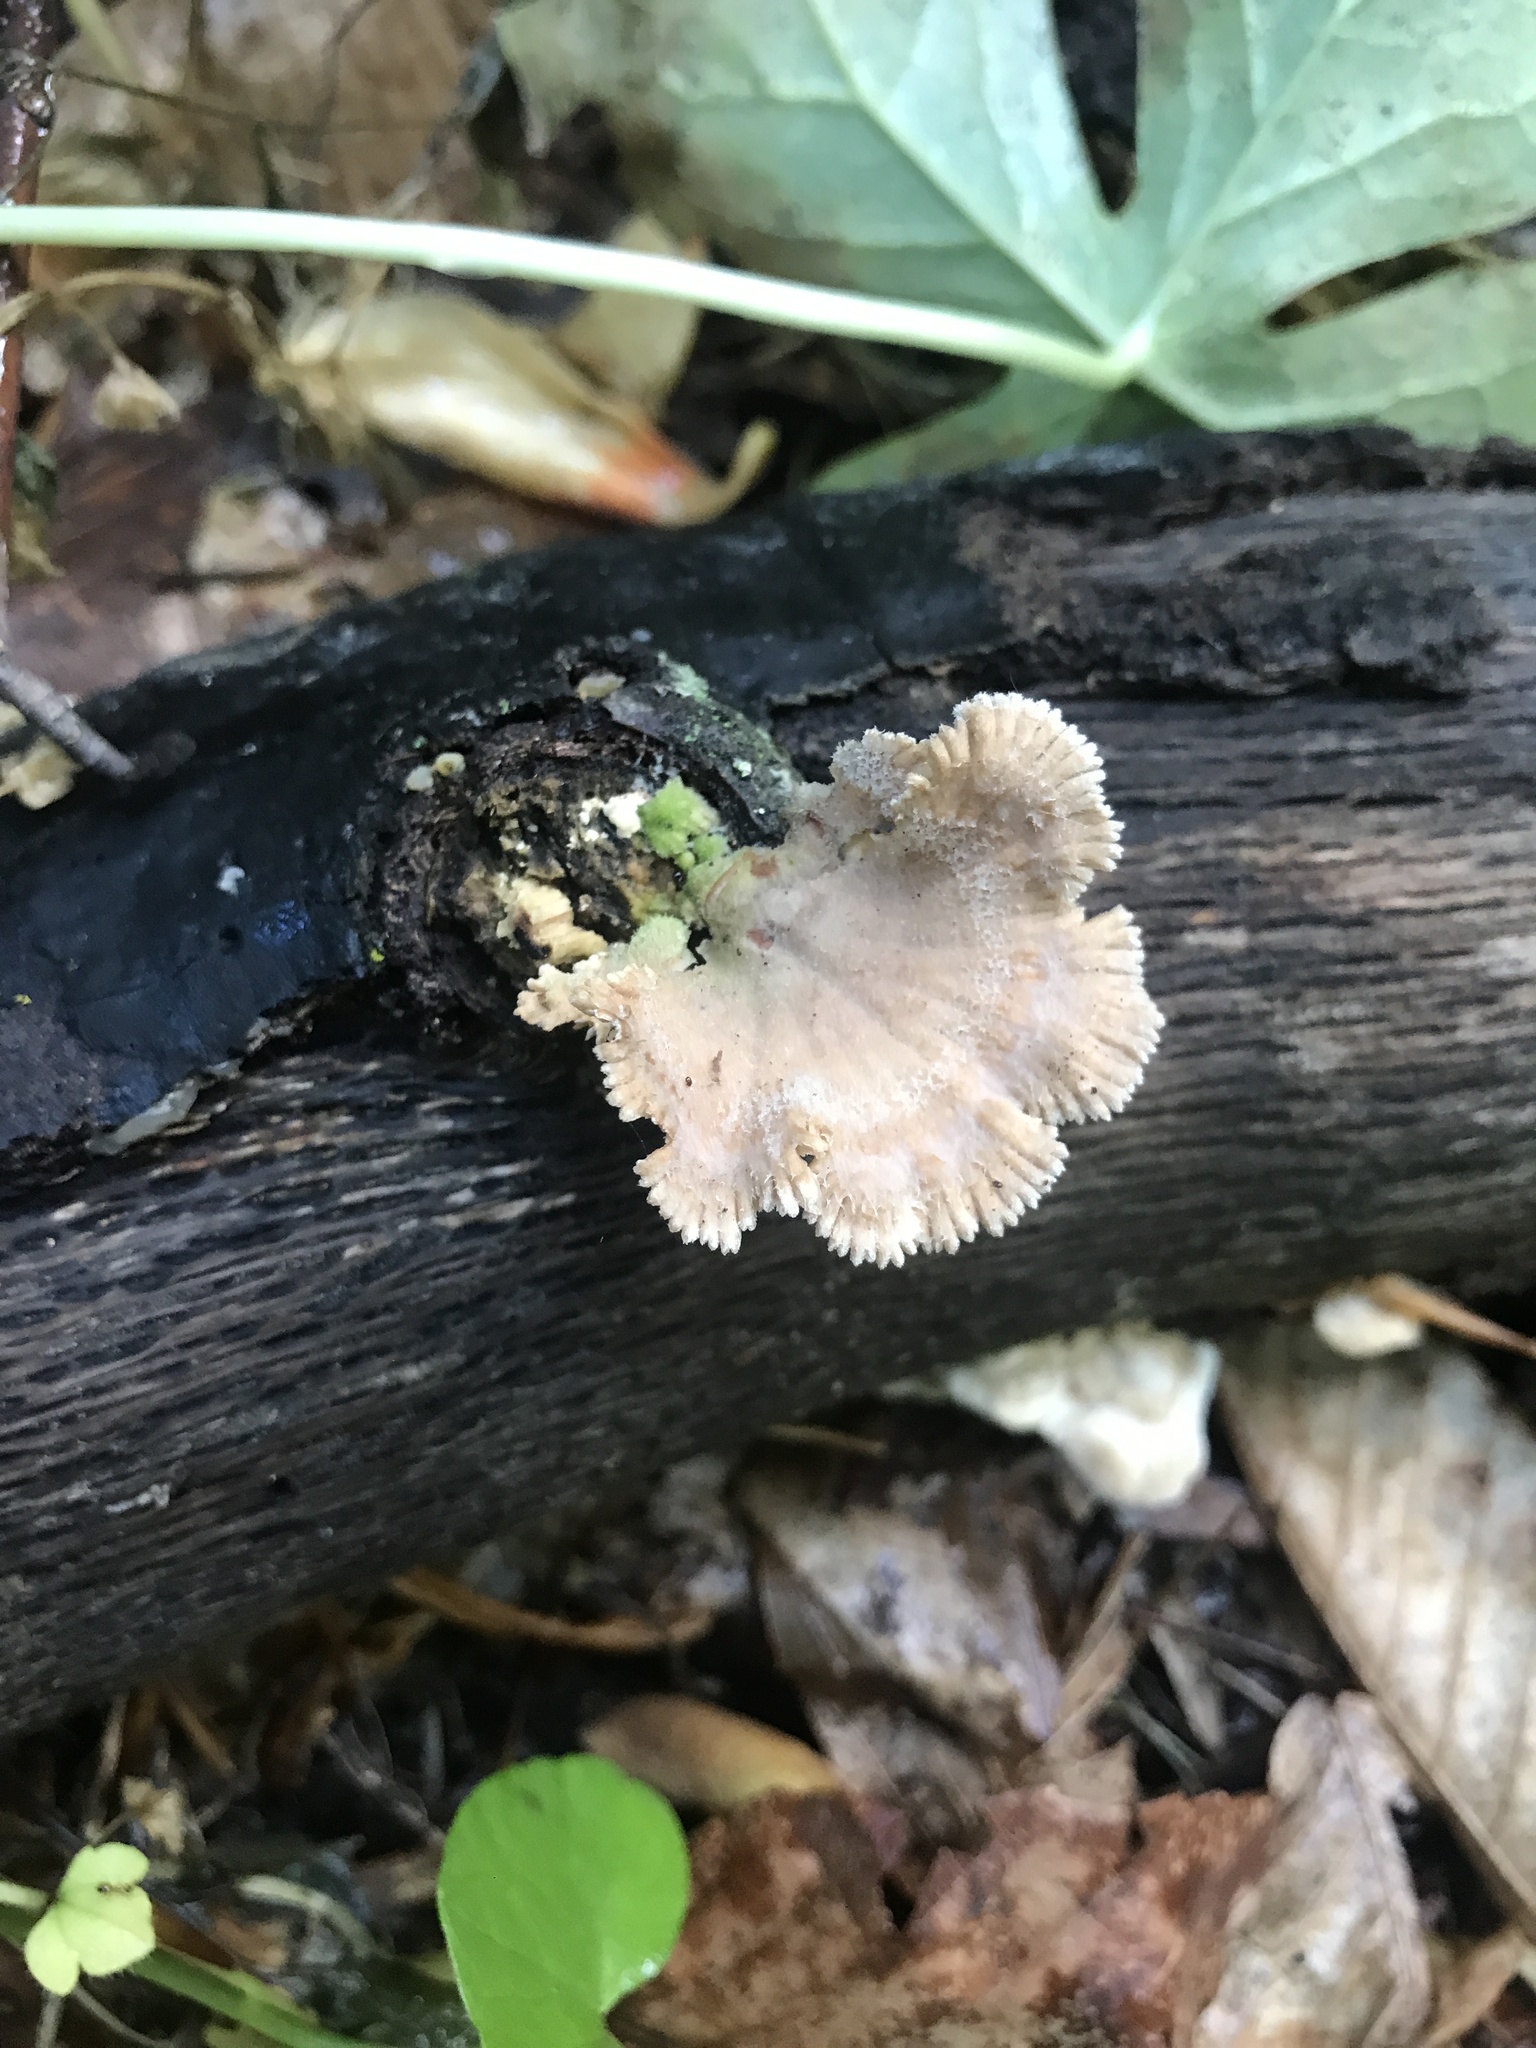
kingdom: Fungi
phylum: Basidiomycota
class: Agaricomycetes
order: Agaricales
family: Schizophyllaceae
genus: Schizophyllum
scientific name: Schizophyllum commune
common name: Common porecrust
